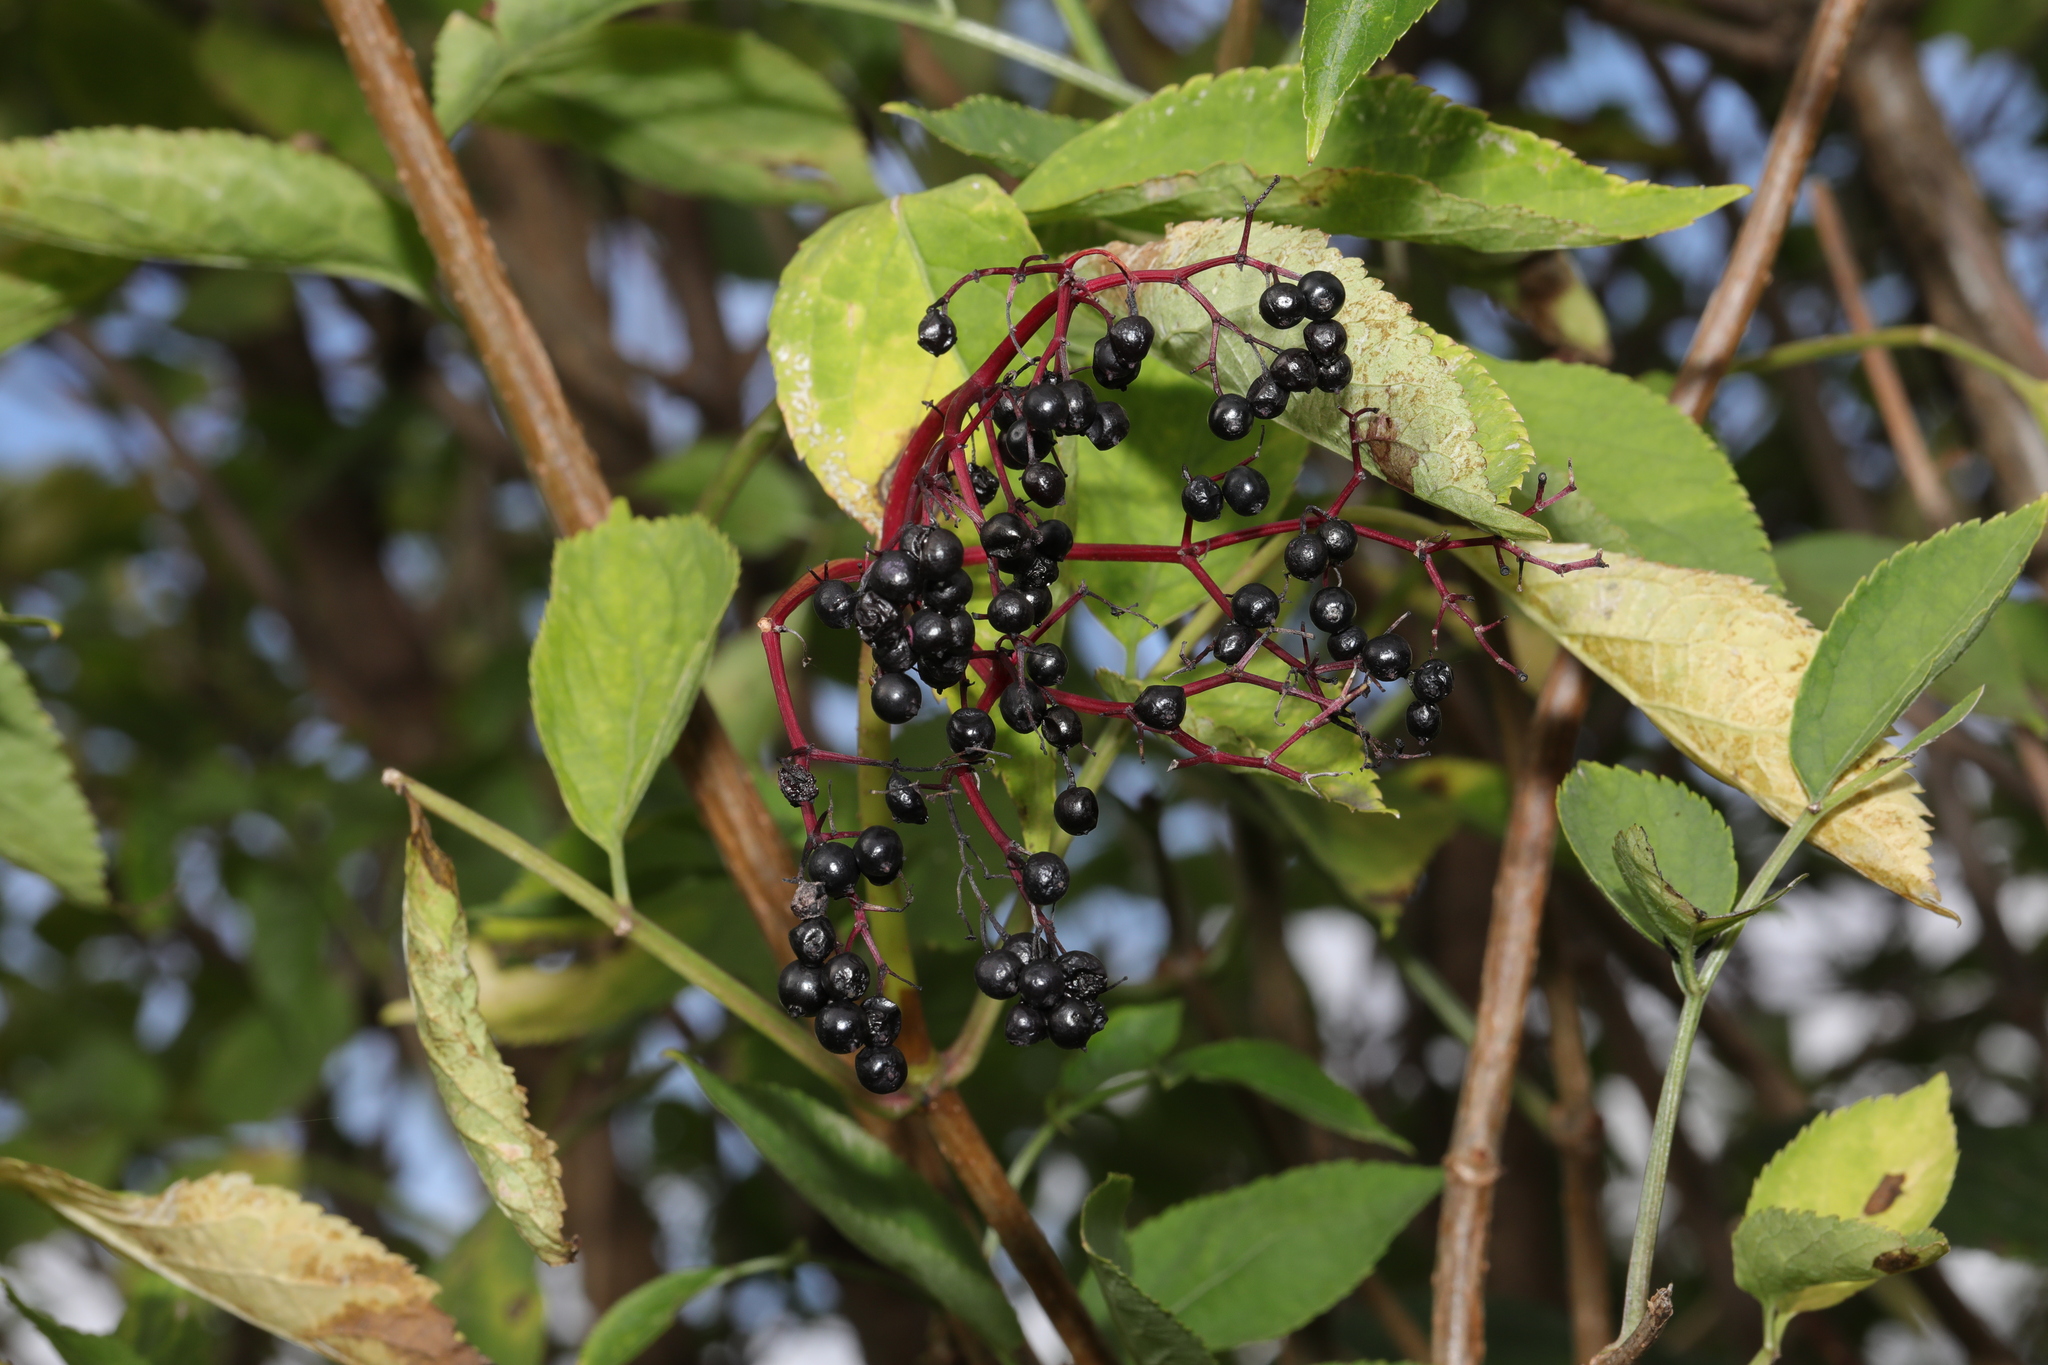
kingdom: Plantae
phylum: Tracheophyta
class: Magnoliopsida
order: Dipsacales
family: Viburnaceae
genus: Sambucus
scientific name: Sambucus nigra
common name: Elder
